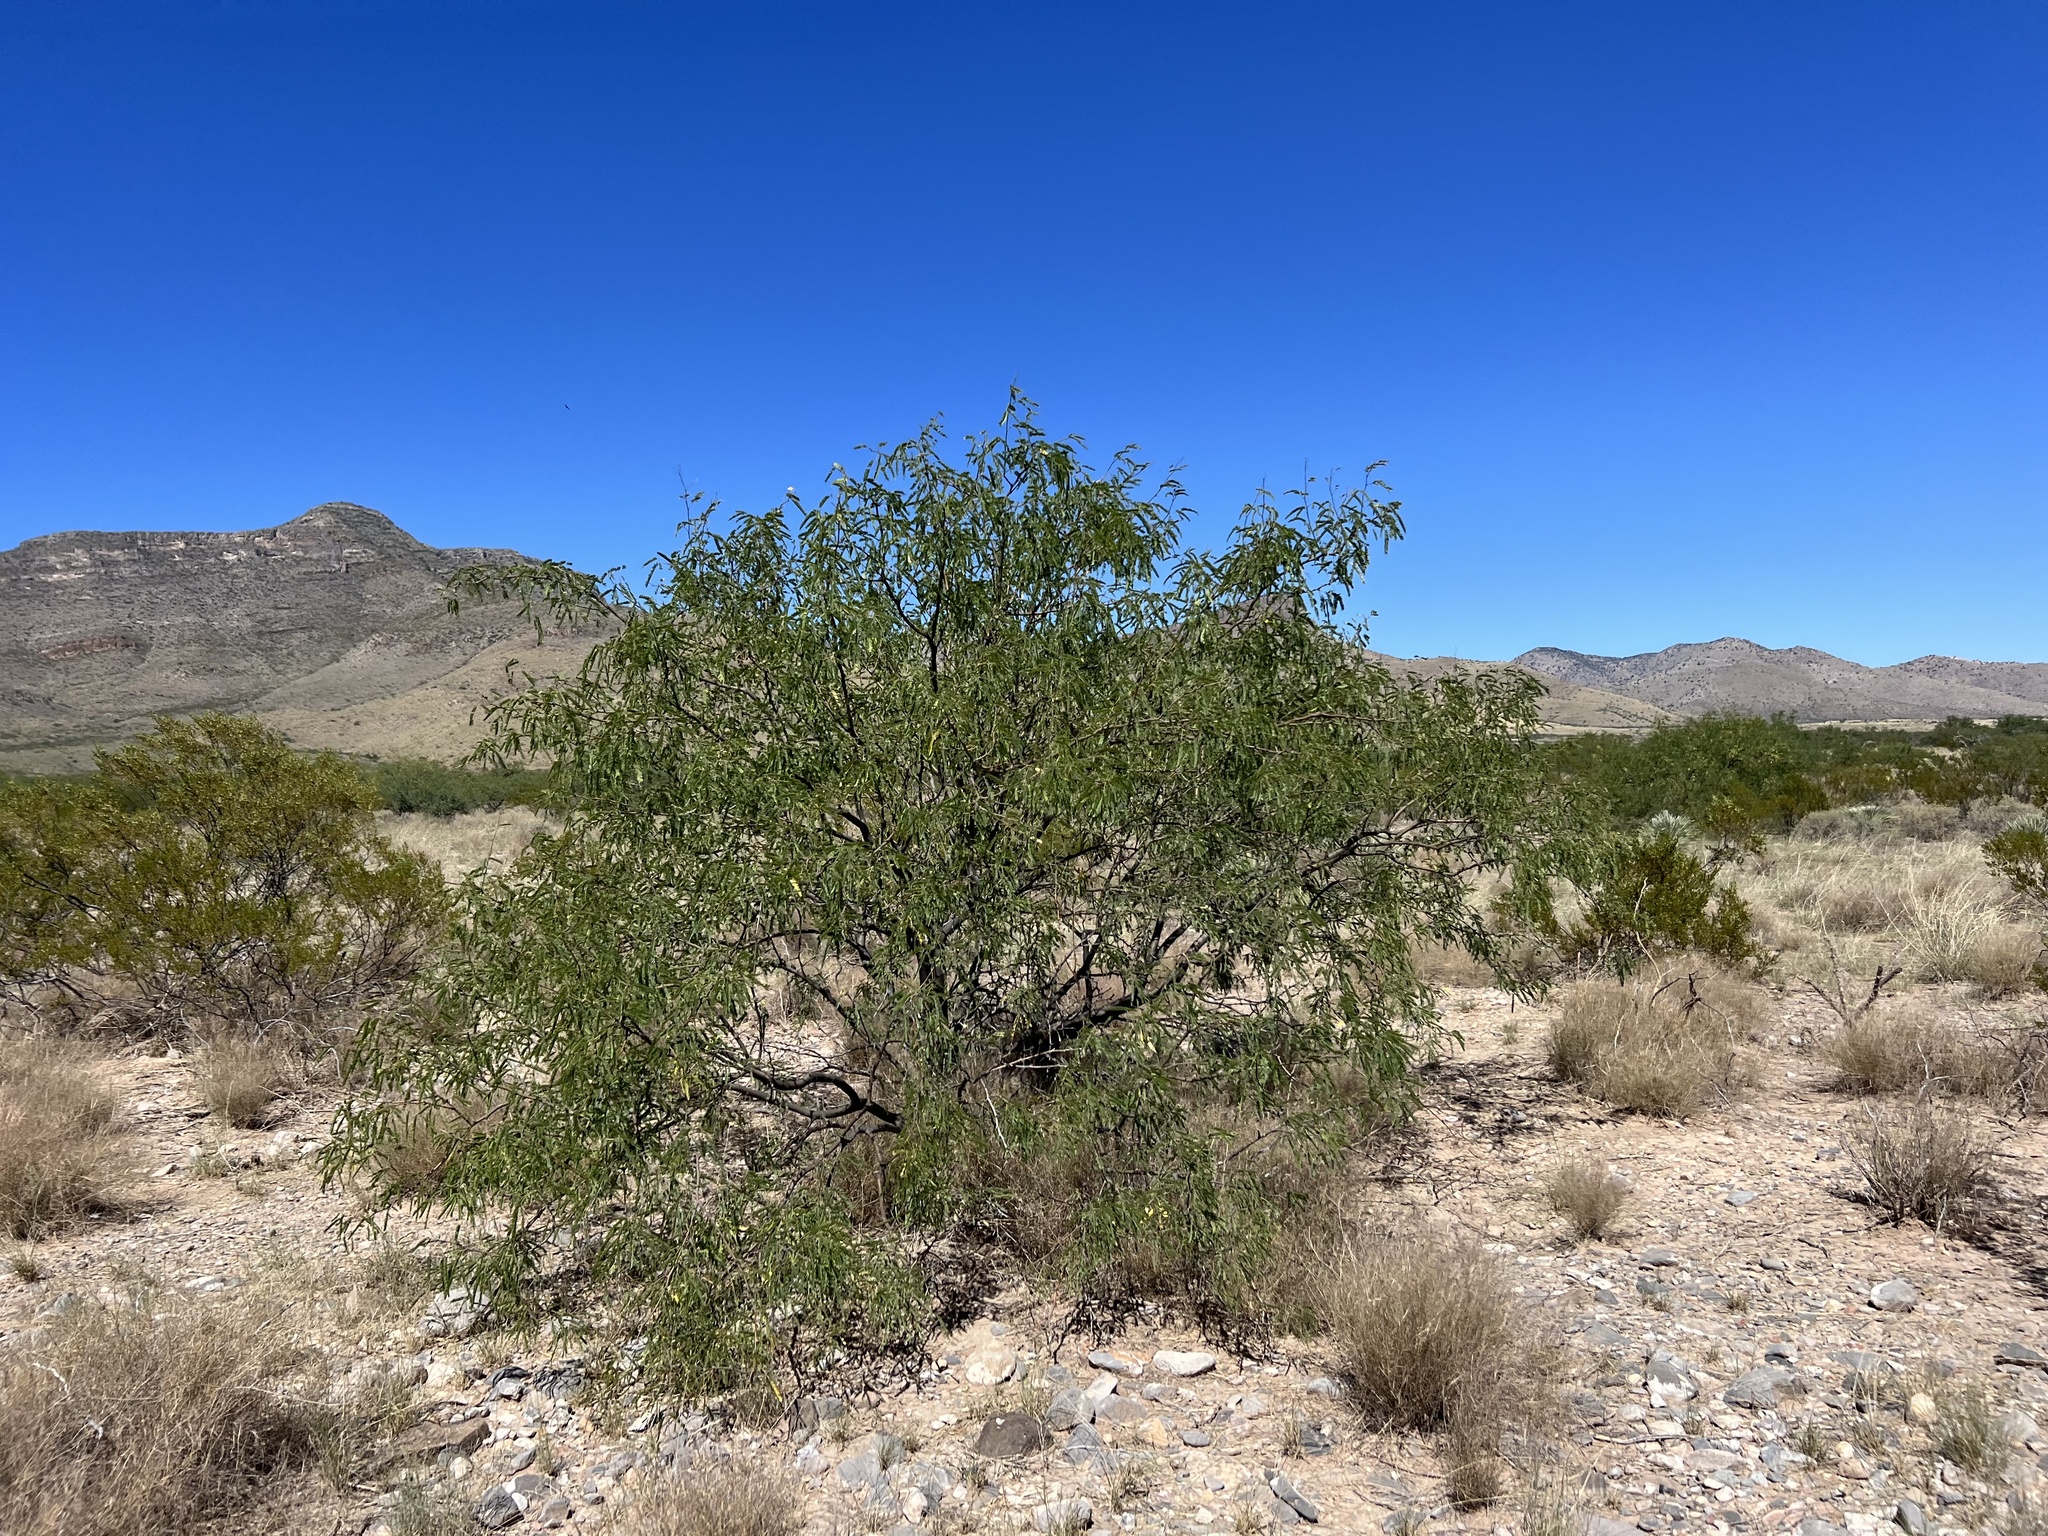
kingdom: Plantae
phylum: Tracheophyta
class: Magnoliopsida
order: Fabales
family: Fabaceae
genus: Prosopis
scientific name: Prosopis velutina
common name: Velvet mesquite
